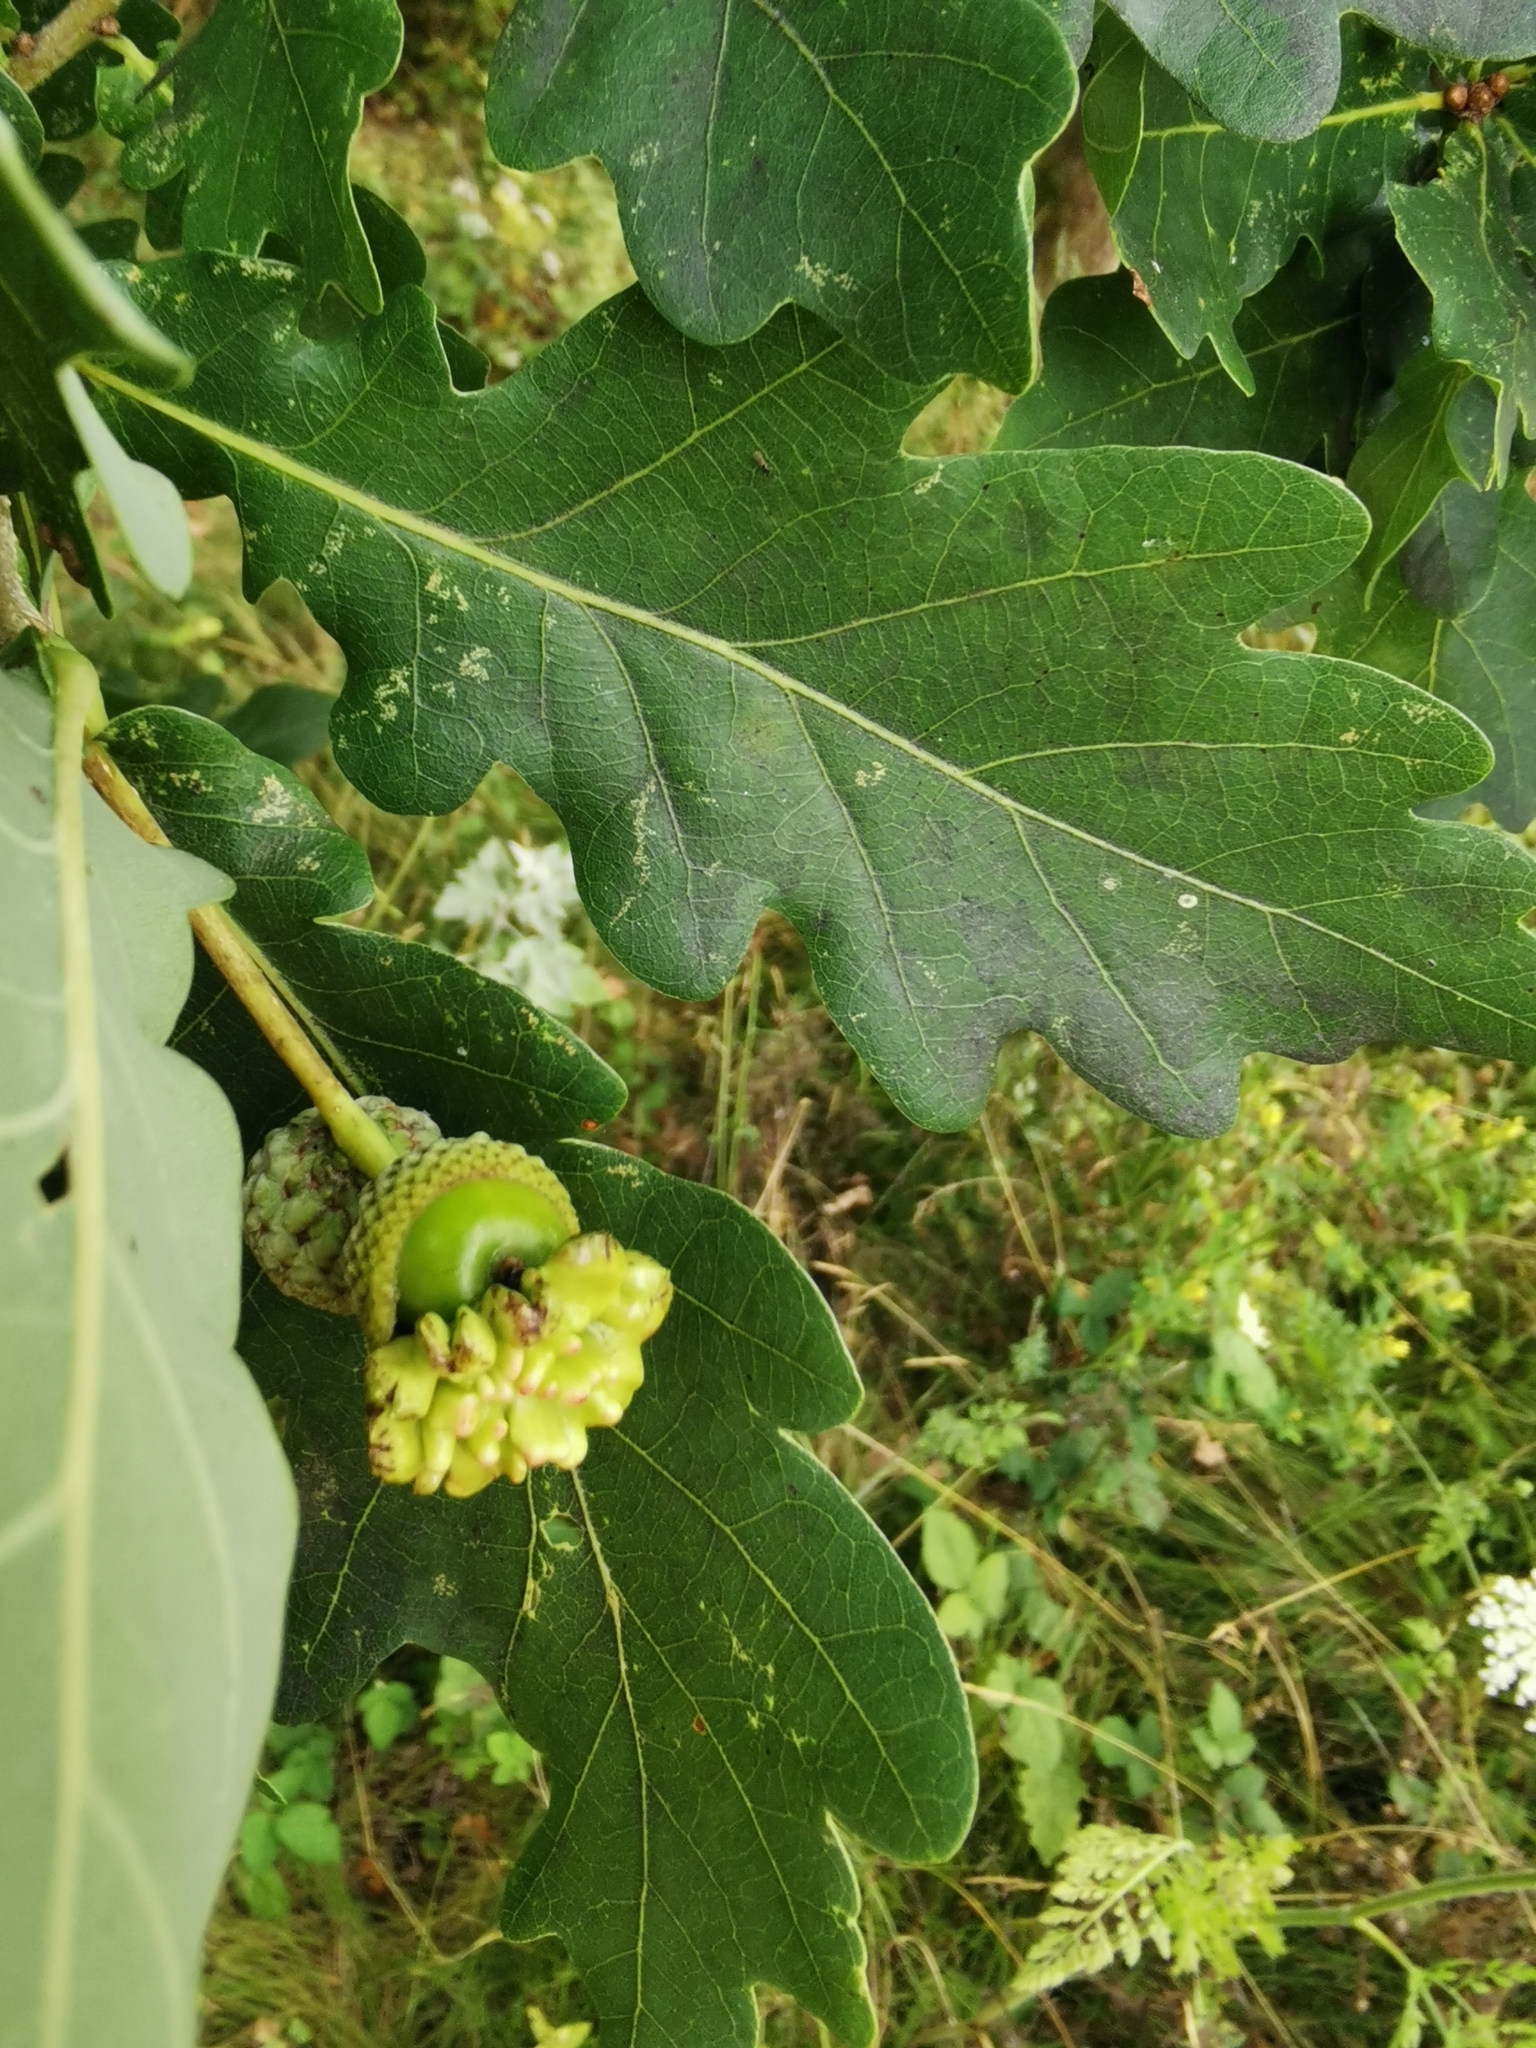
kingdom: Animalia
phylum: Arthropoda
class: Insecta
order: Hymenoptera
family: Cynipidae
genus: Andricus
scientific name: Andricus quercuscalicis
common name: Knopper gall
